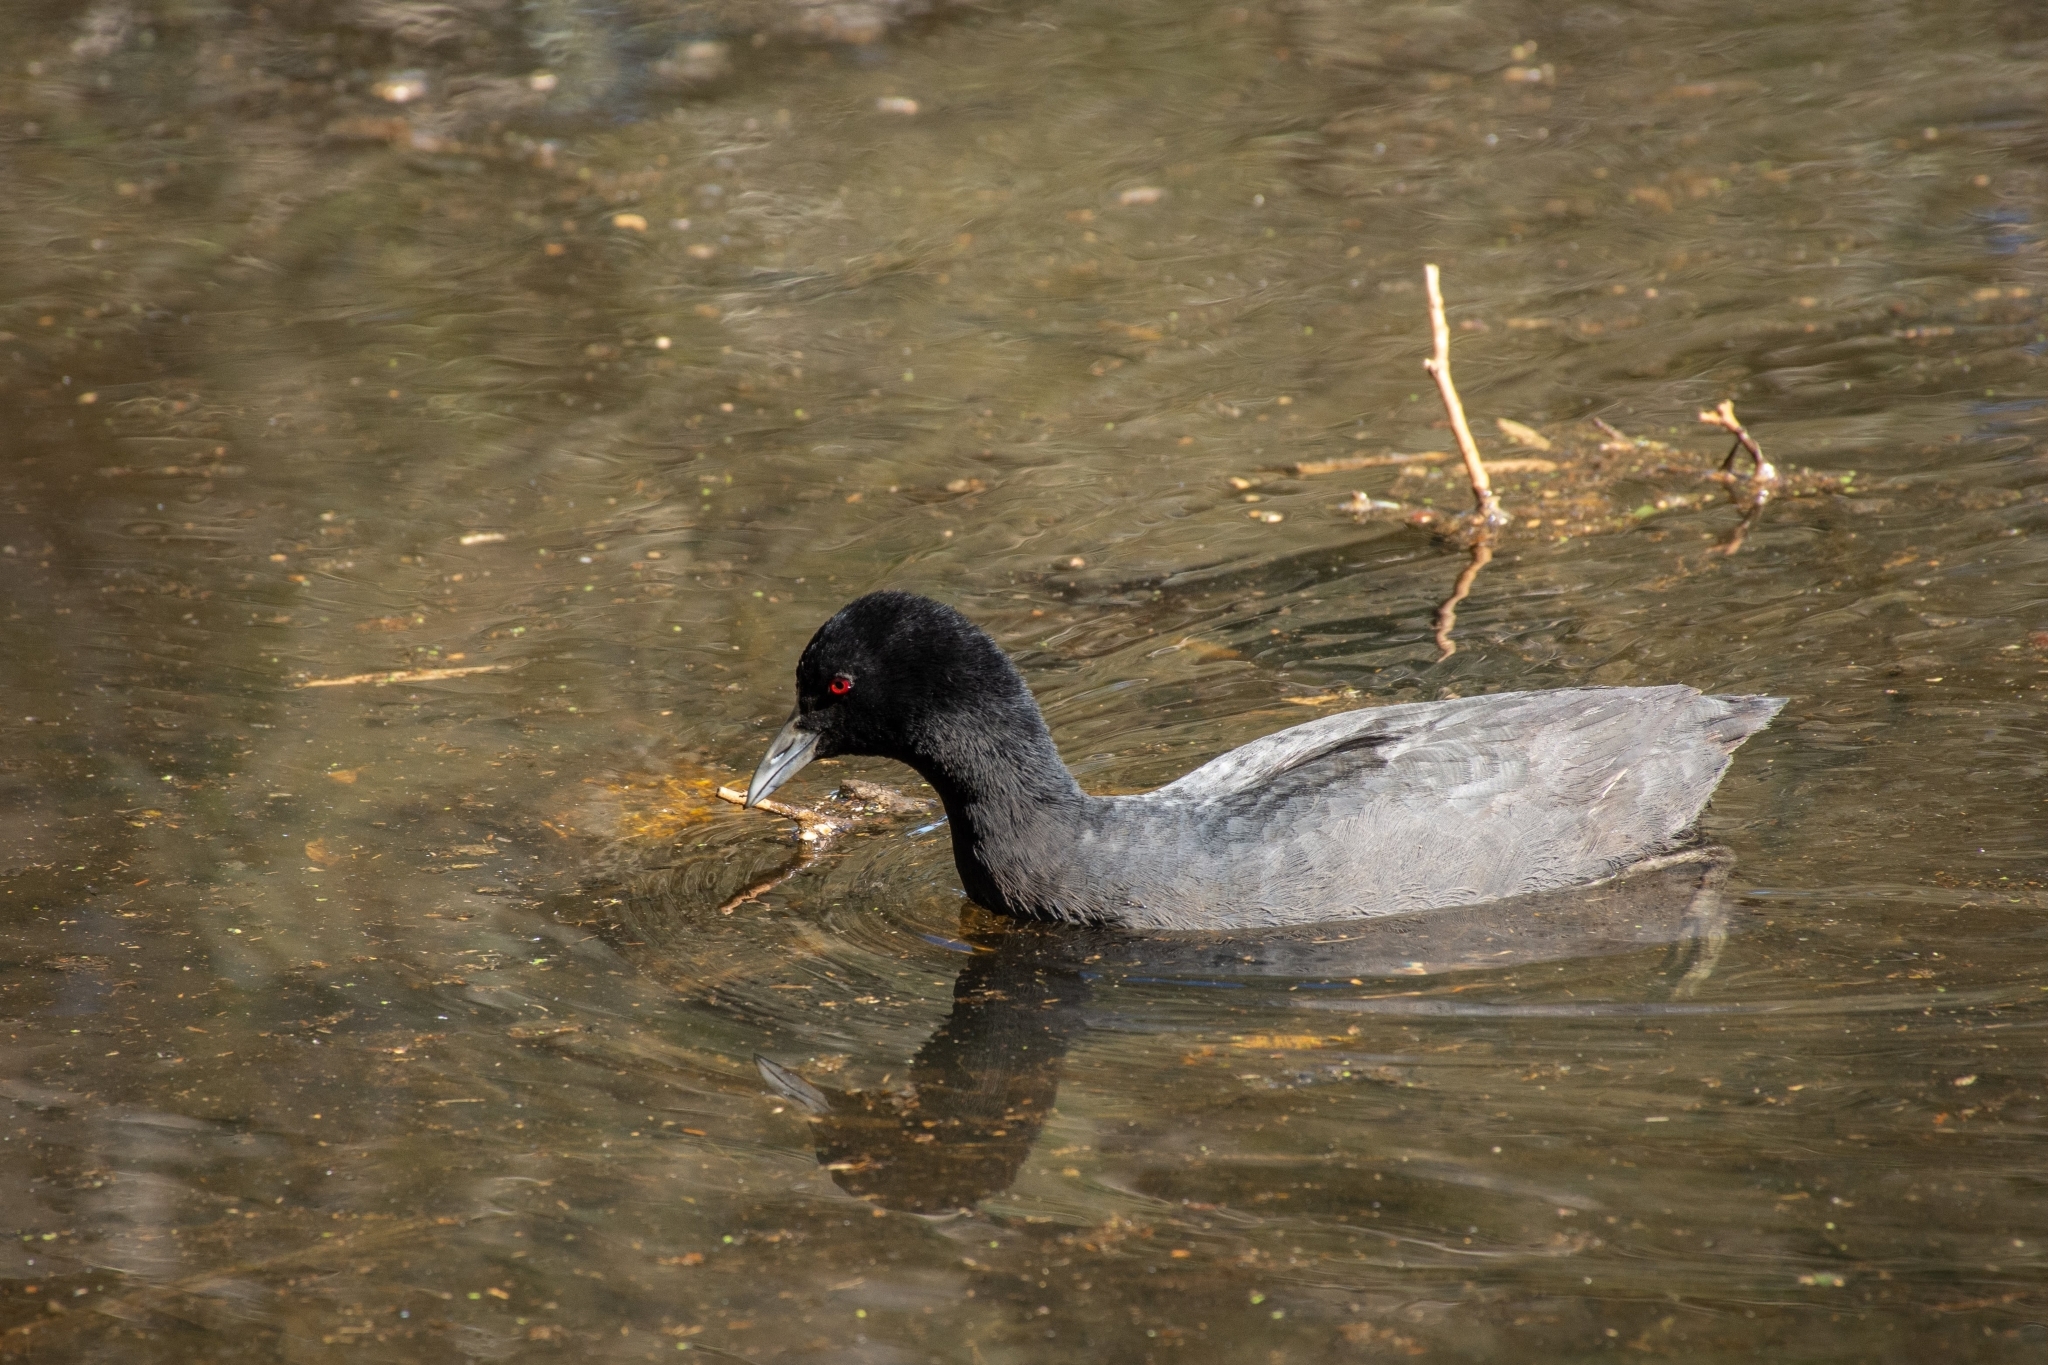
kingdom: Animalia
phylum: Chordata
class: Aves
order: Gruiformes
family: Rallidae
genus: Fulica
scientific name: Fulica atra
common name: Eurasian coot
